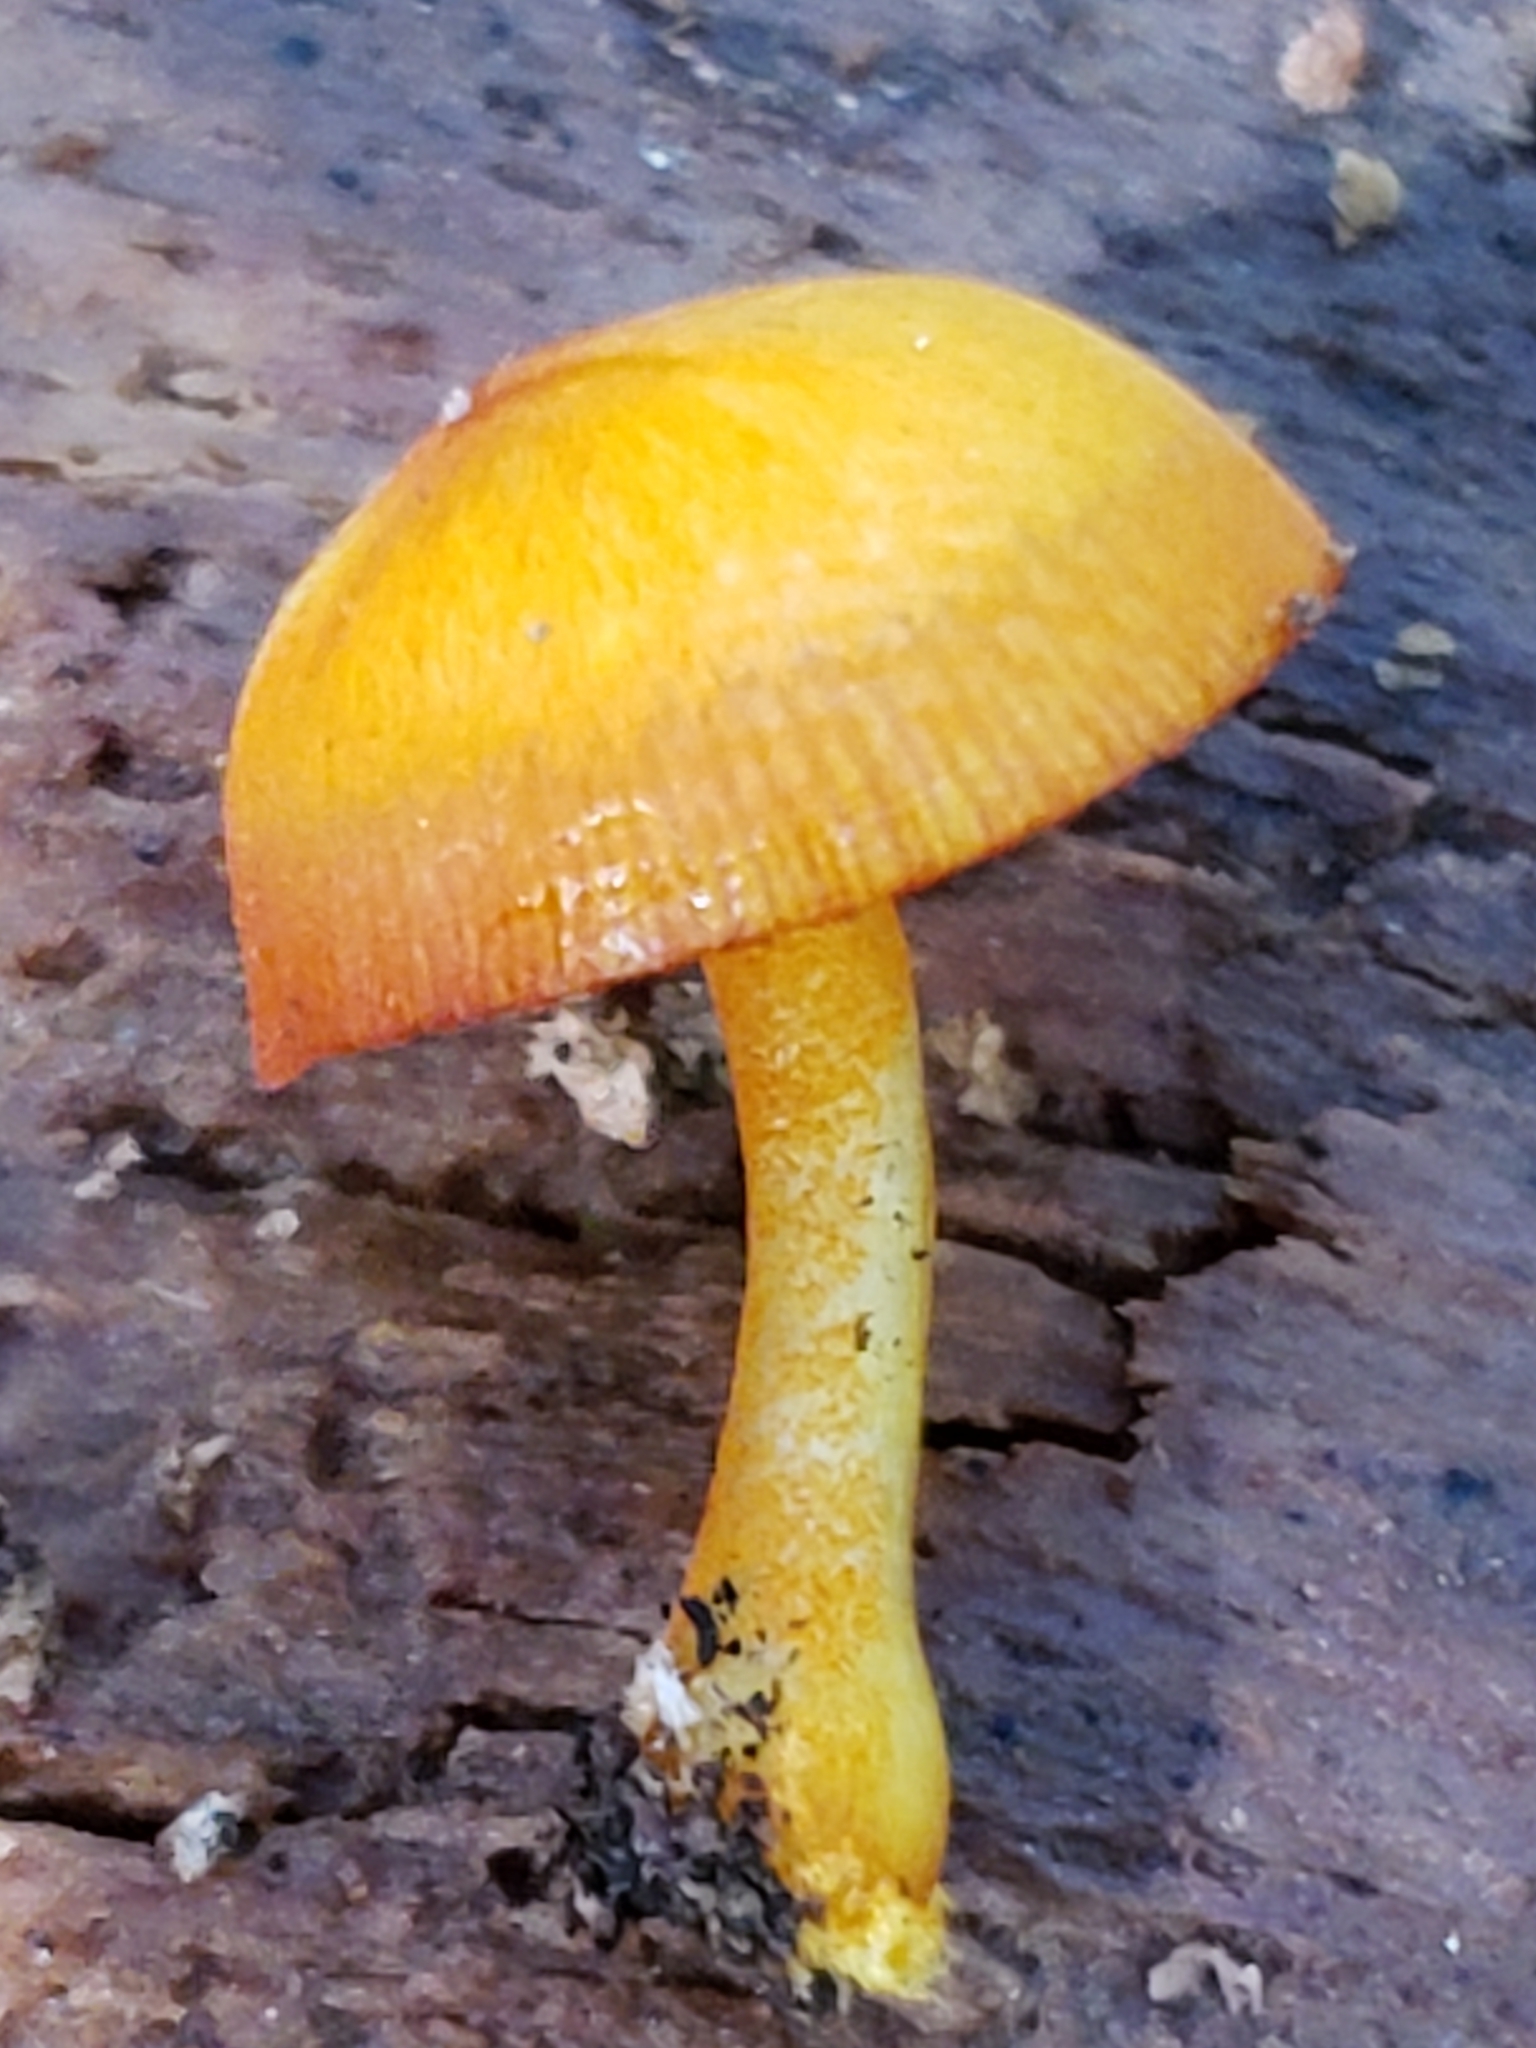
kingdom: Fungi
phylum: Basidiomycota
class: Agaricomycetes
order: Agaricales
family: Mycenaceae
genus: Mycena
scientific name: Mycena leaiana
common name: Orange mycena
